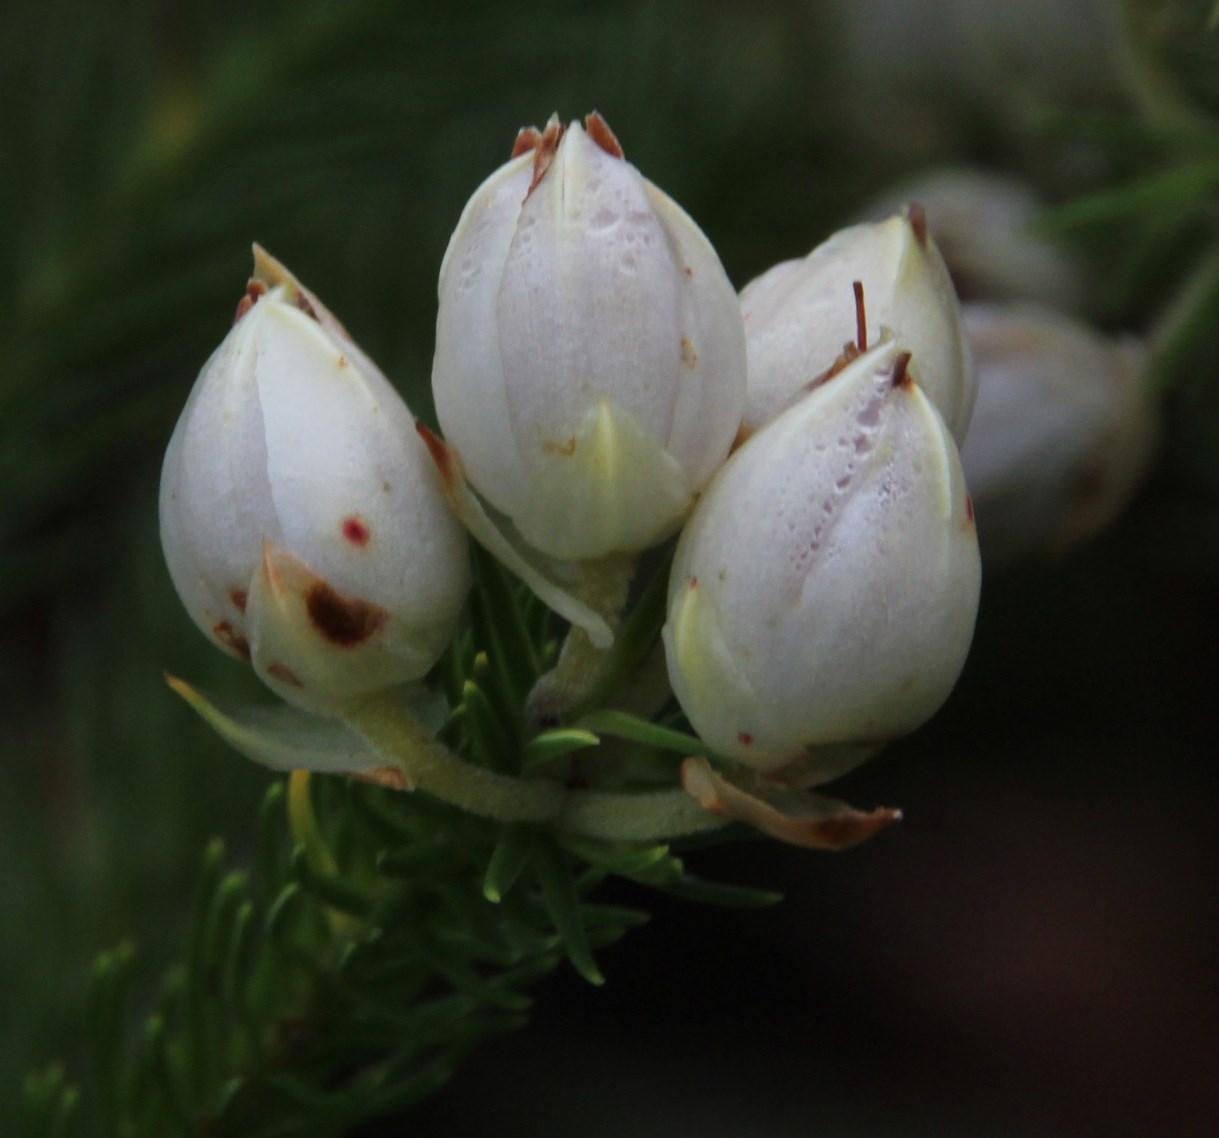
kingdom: Plantae
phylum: Tracheophyta
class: Magnoliopsida
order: Ericales
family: Ericaceae
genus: Erica
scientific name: Erica papyracea
